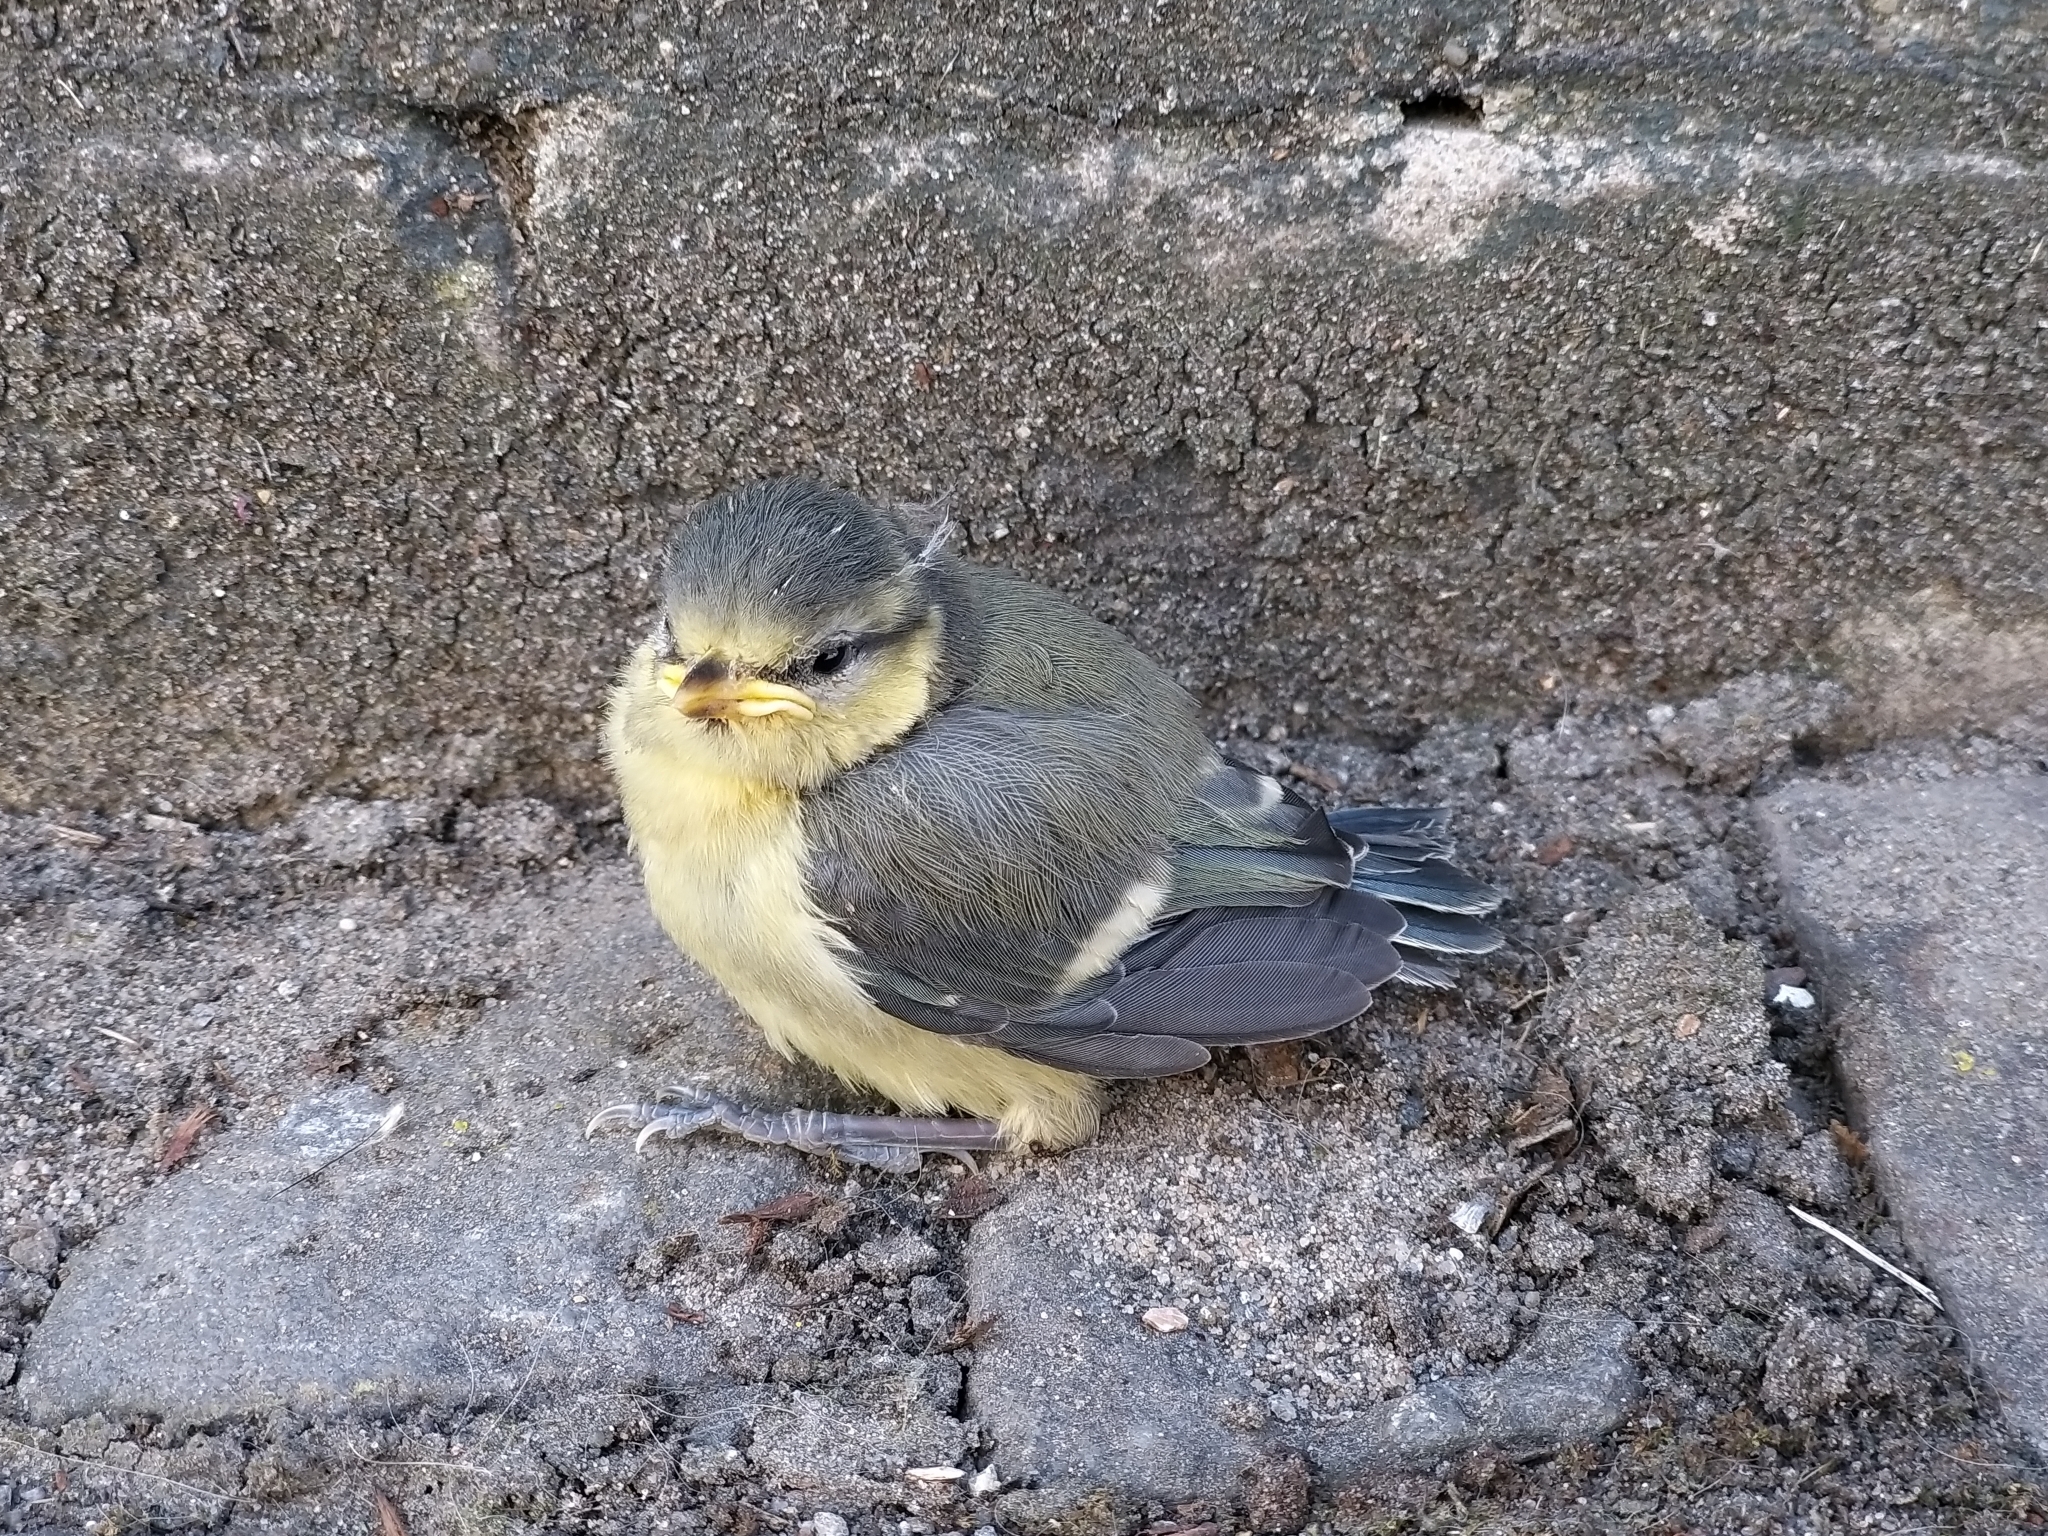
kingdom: Animalia
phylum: Chordata
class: Aves
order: Passeriformes
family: Paridae
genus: Cyanistes
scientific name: Cyanistes caeruleus
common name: Eurasian blue tit
